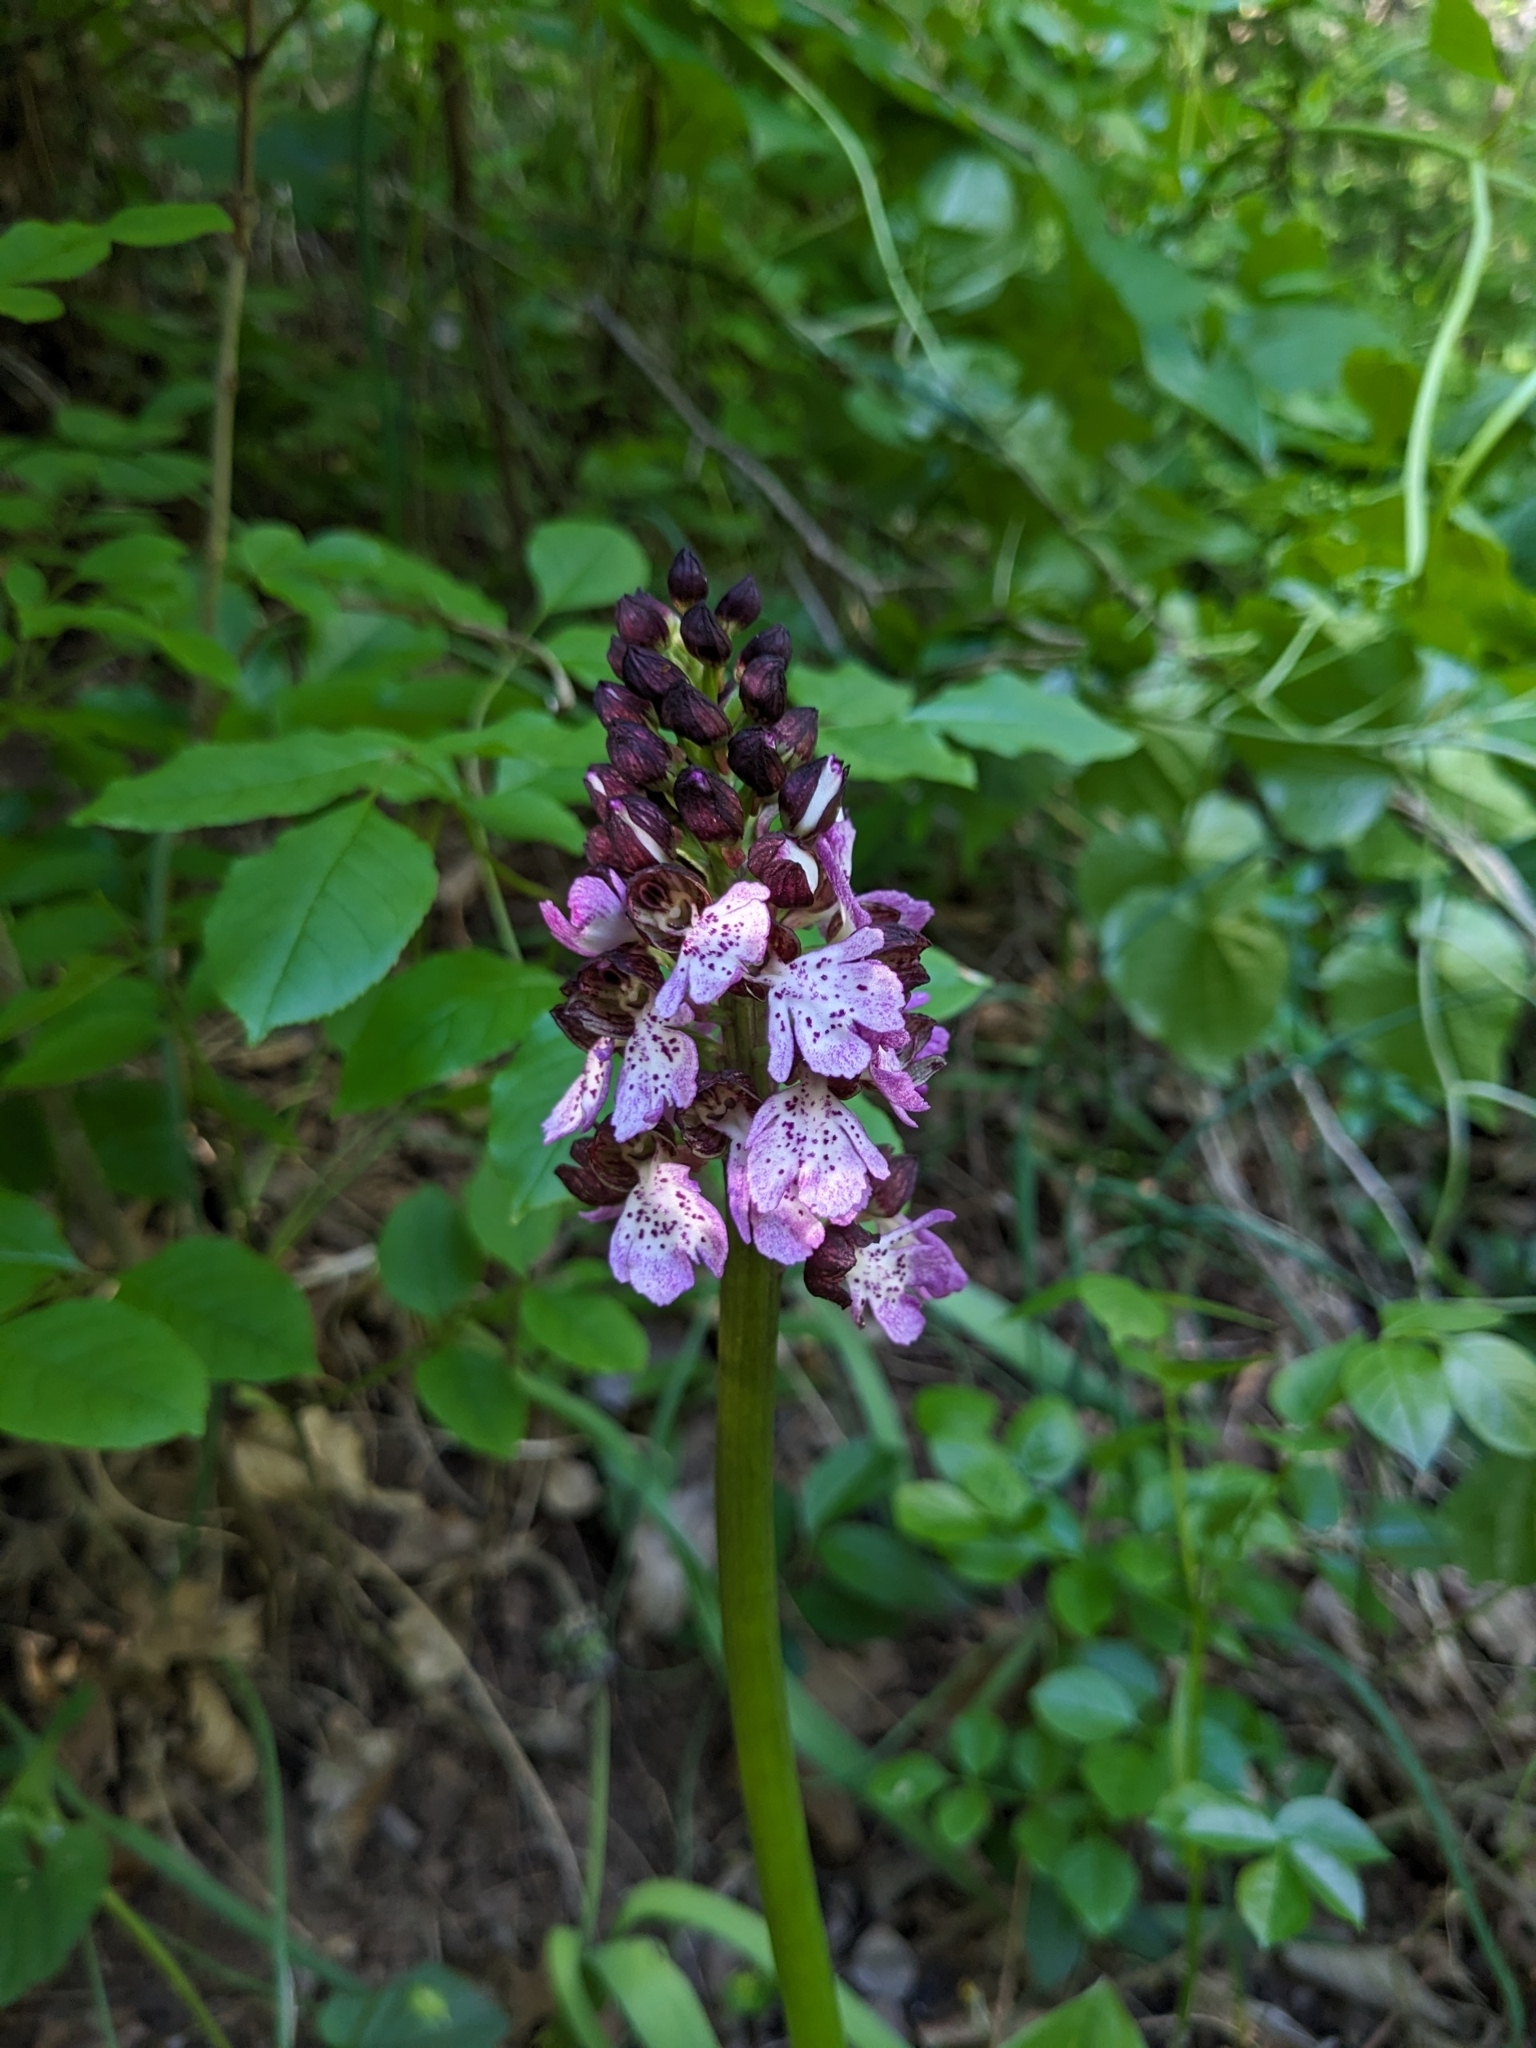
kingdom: Plantae
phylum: Tracheophyta
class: Liliopsida
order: Asparagales
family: Orchidaceae
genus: Orchis
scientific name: Orchis purpurea
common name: Lady orchid
